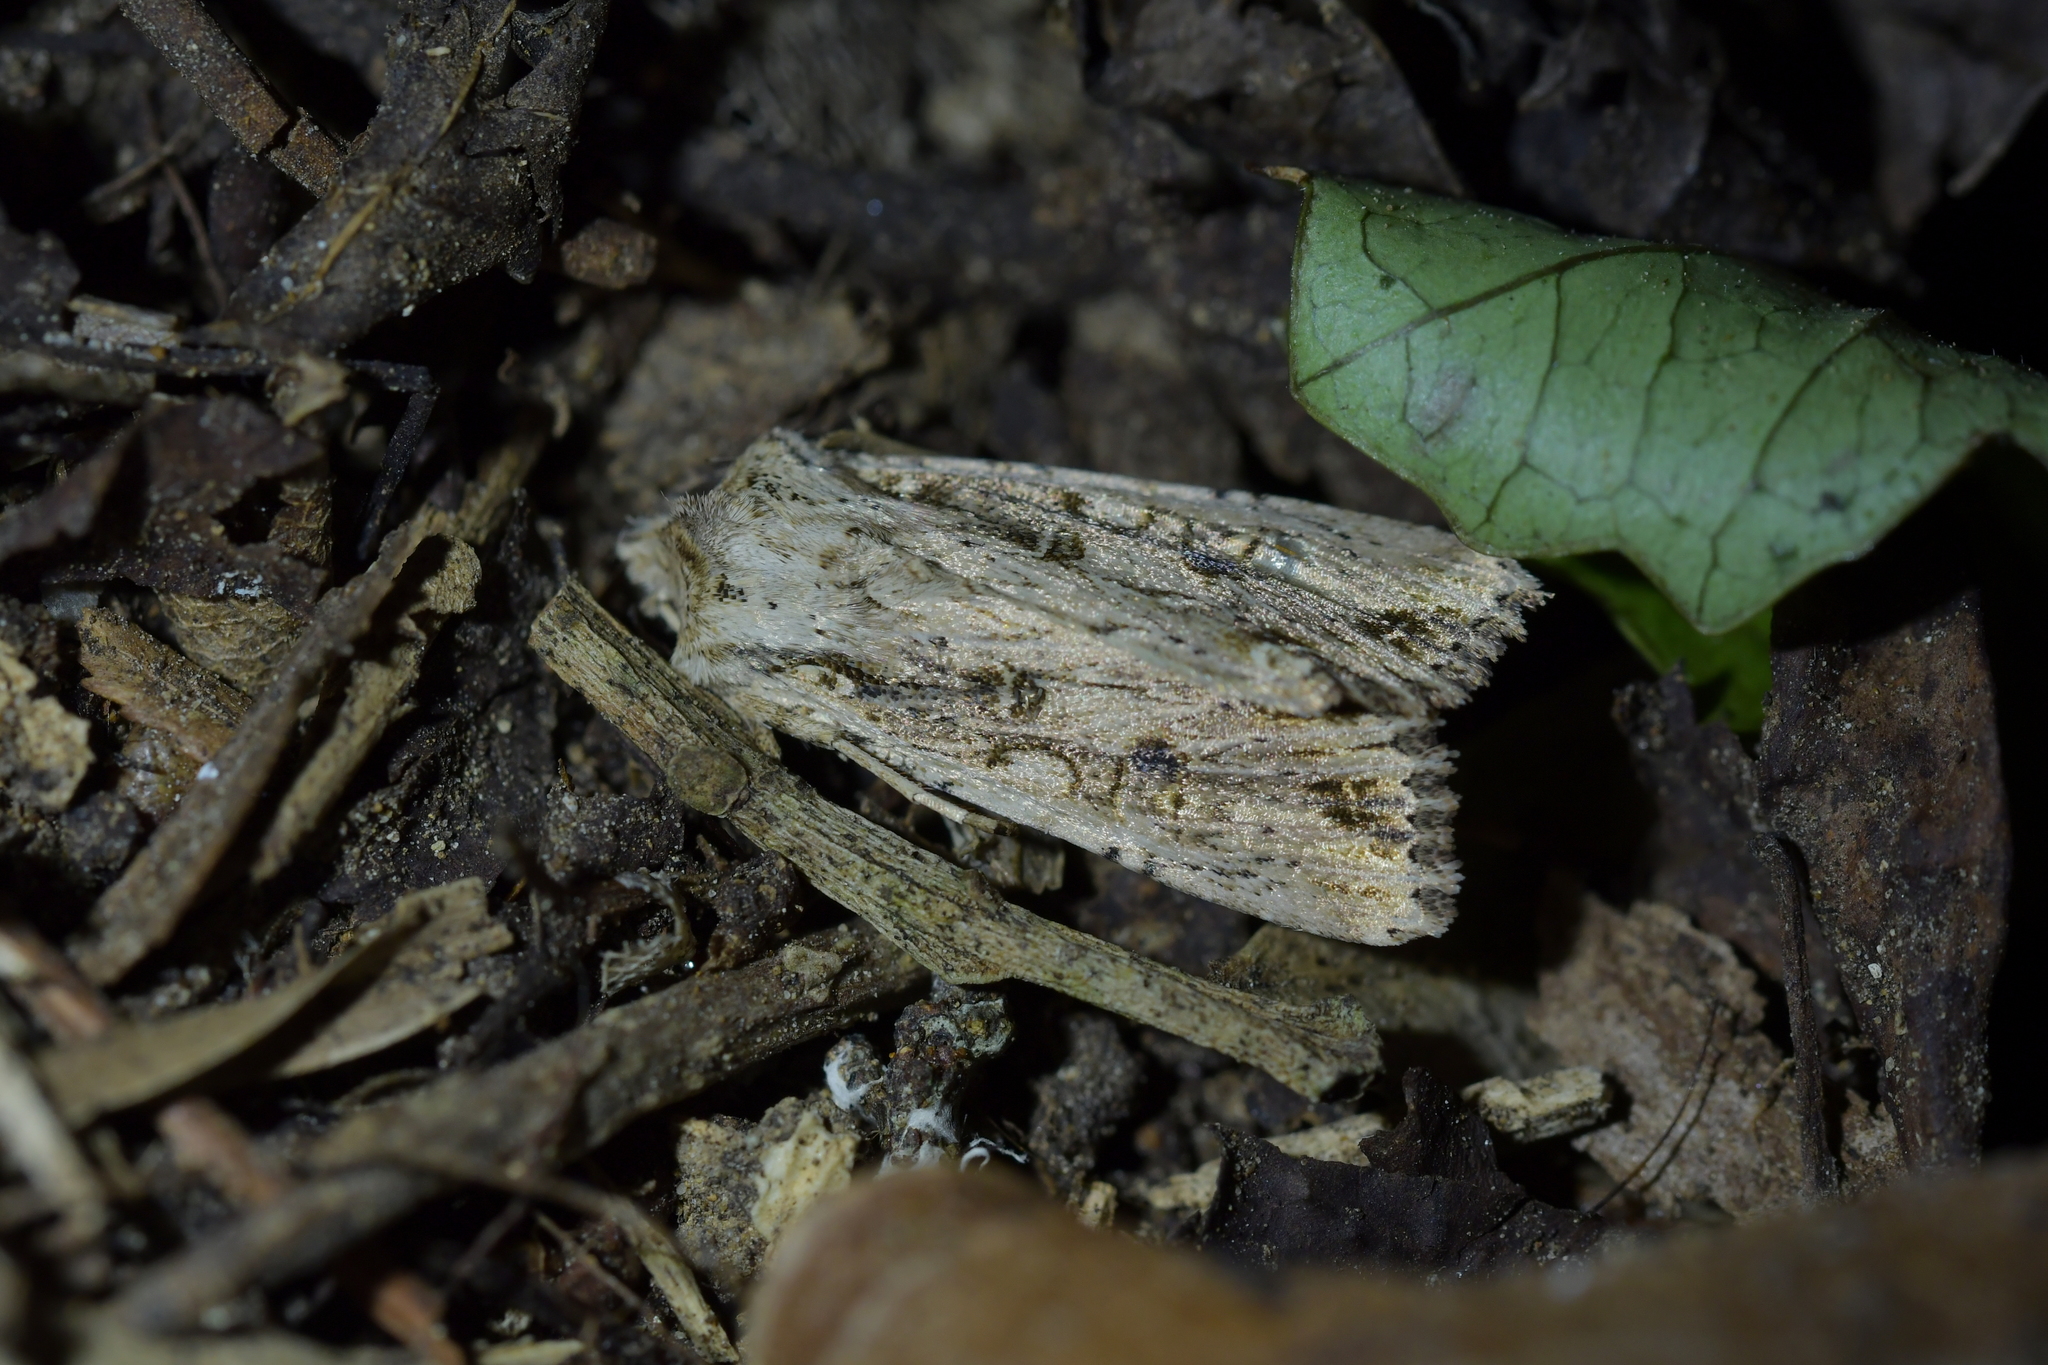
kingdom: Animalia
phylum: Arthropoda
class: Insecta
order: Lepidoptera
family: Noctuidae
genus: Ichneutica
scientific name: Ichneutica lignana
